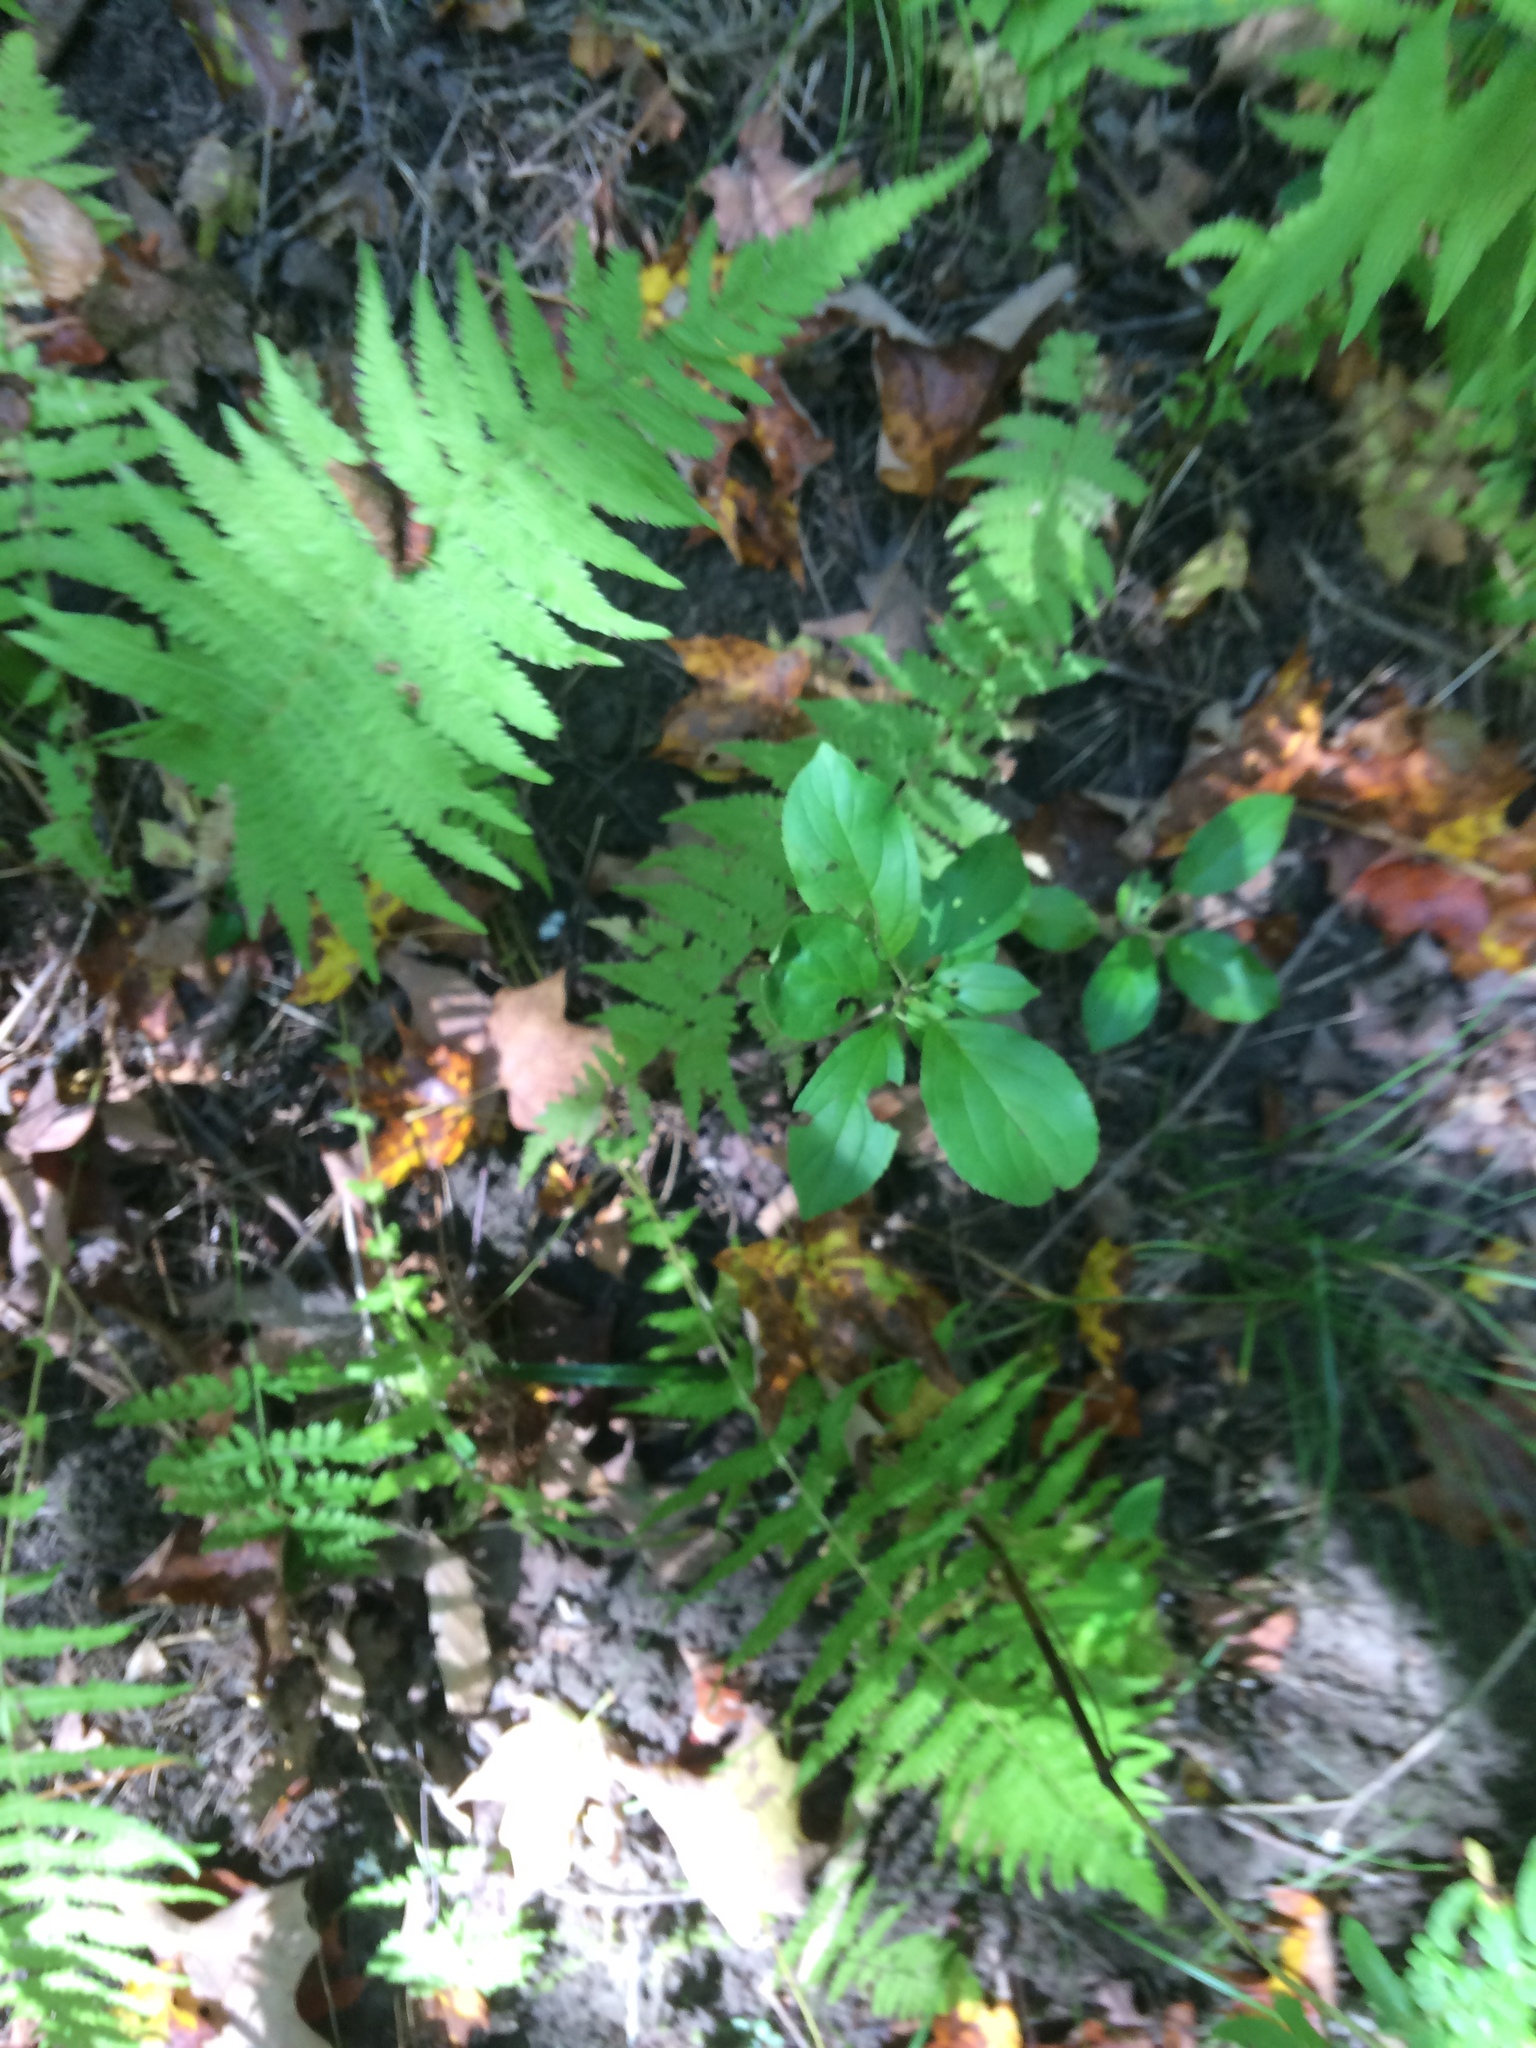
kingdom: Plantae
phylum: Tracheophyta
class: Magnoliopsida
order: Rosales
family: Rhamnaceae
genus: Rhamnus
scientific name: Rhamnus cathartica
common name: Common buckthorn
